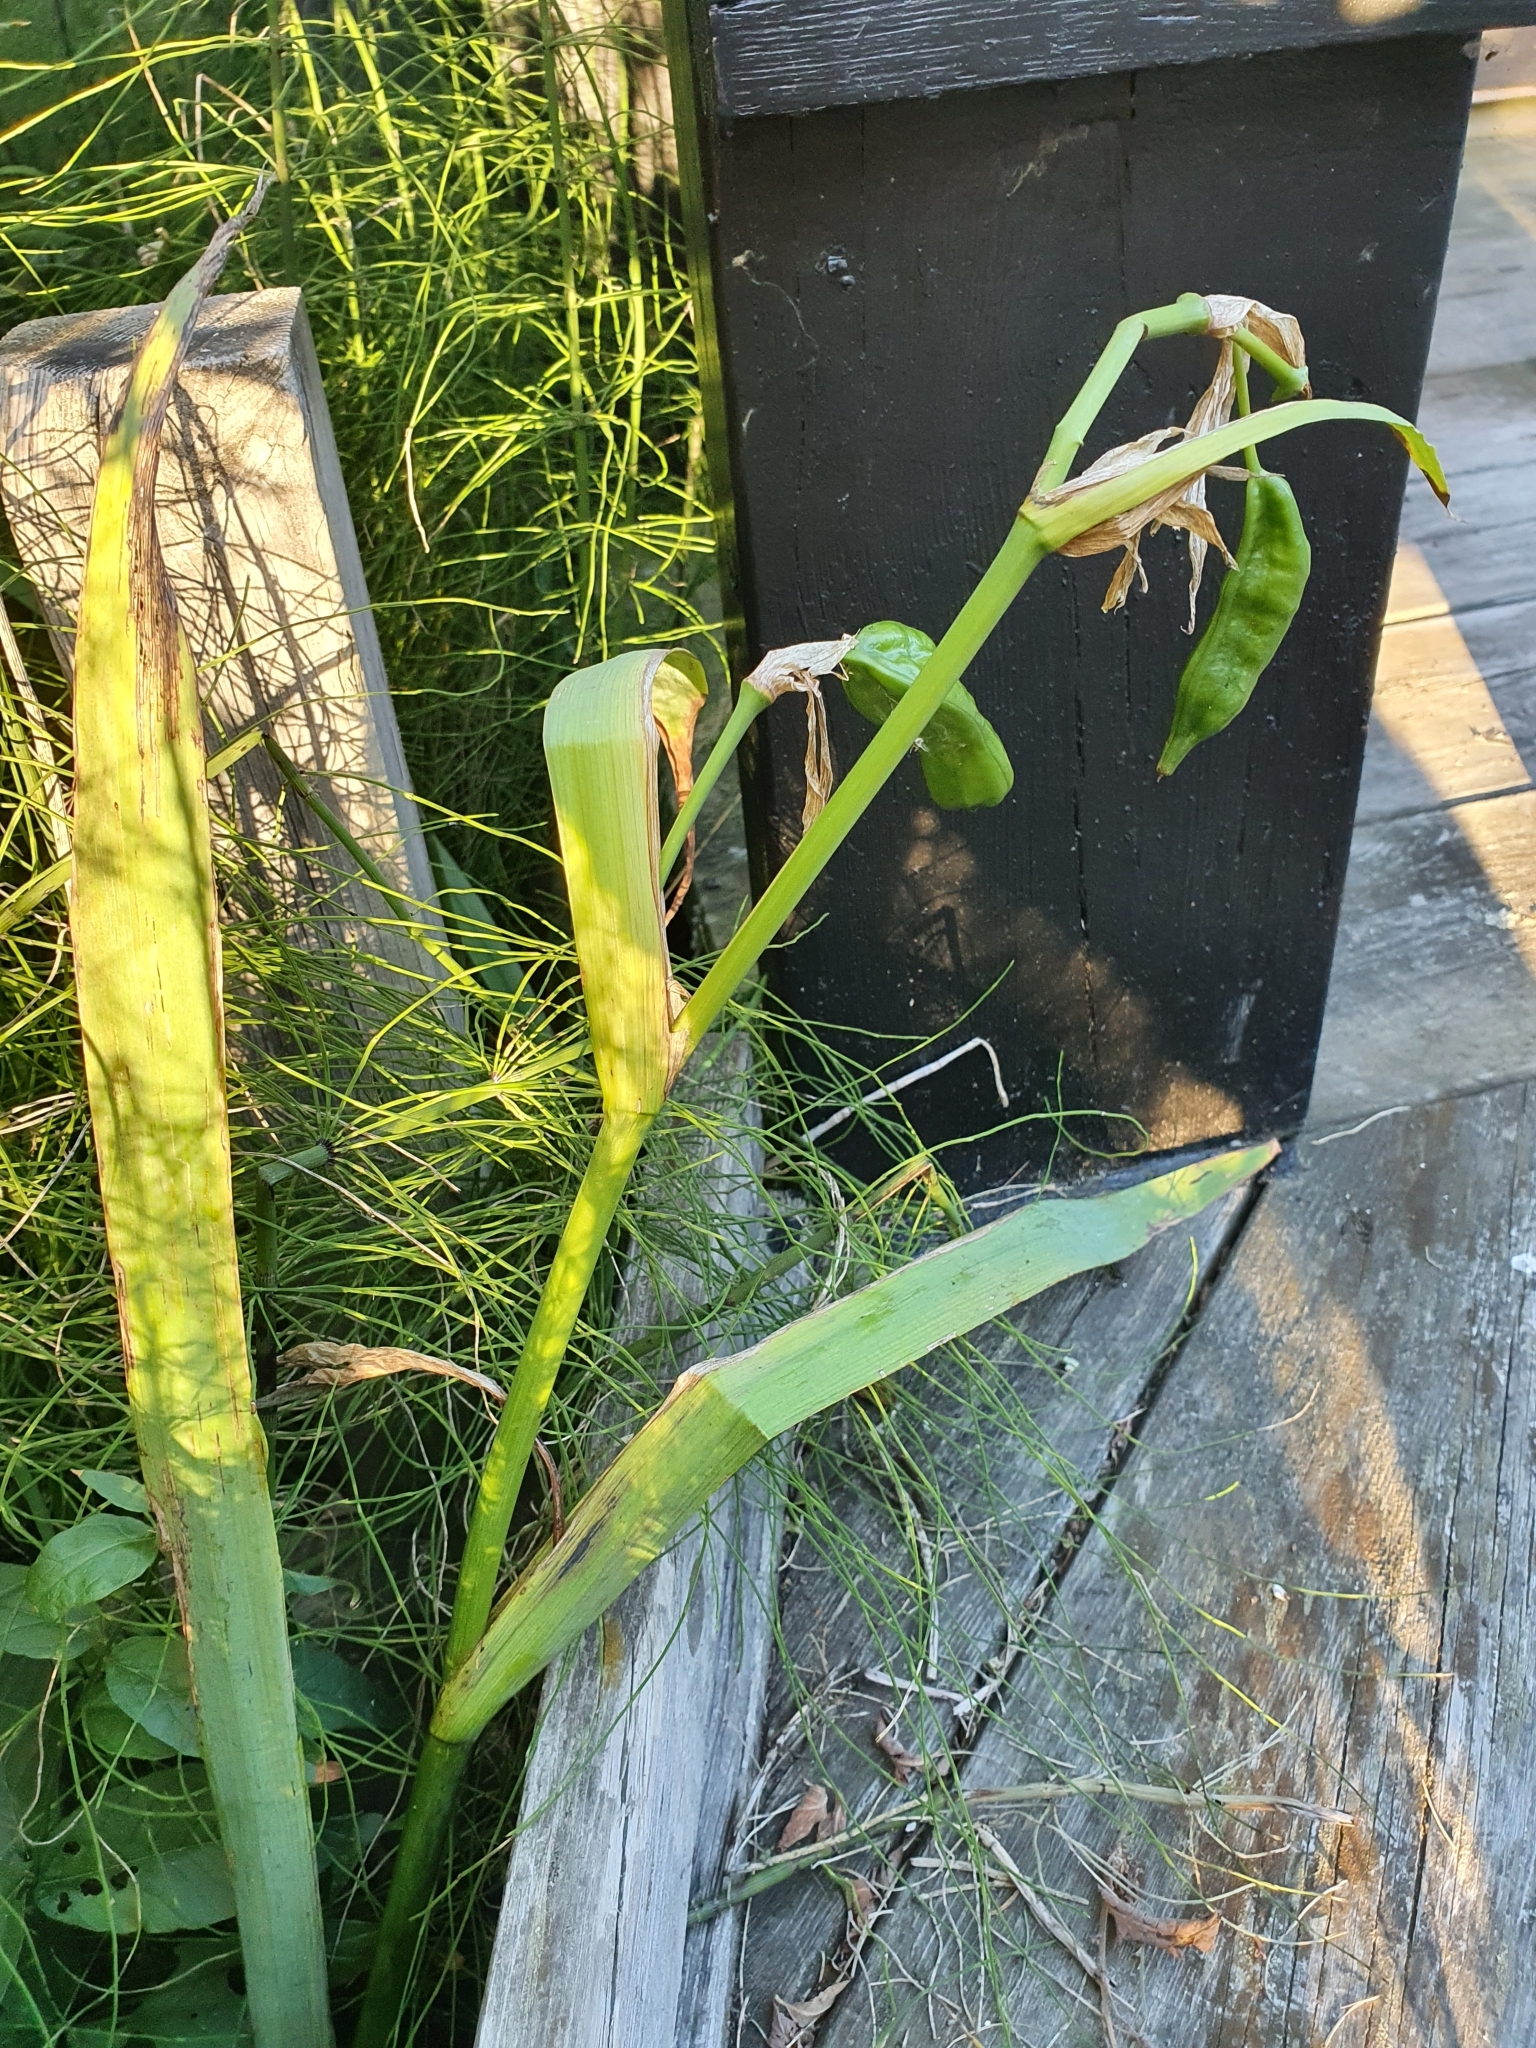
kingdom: Plantae
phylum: Tracheophyta
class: Liliopsida
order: Asparagales
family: Iridaceae
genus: Iris
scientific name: Iris pseudacorus
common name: Yellow flag
